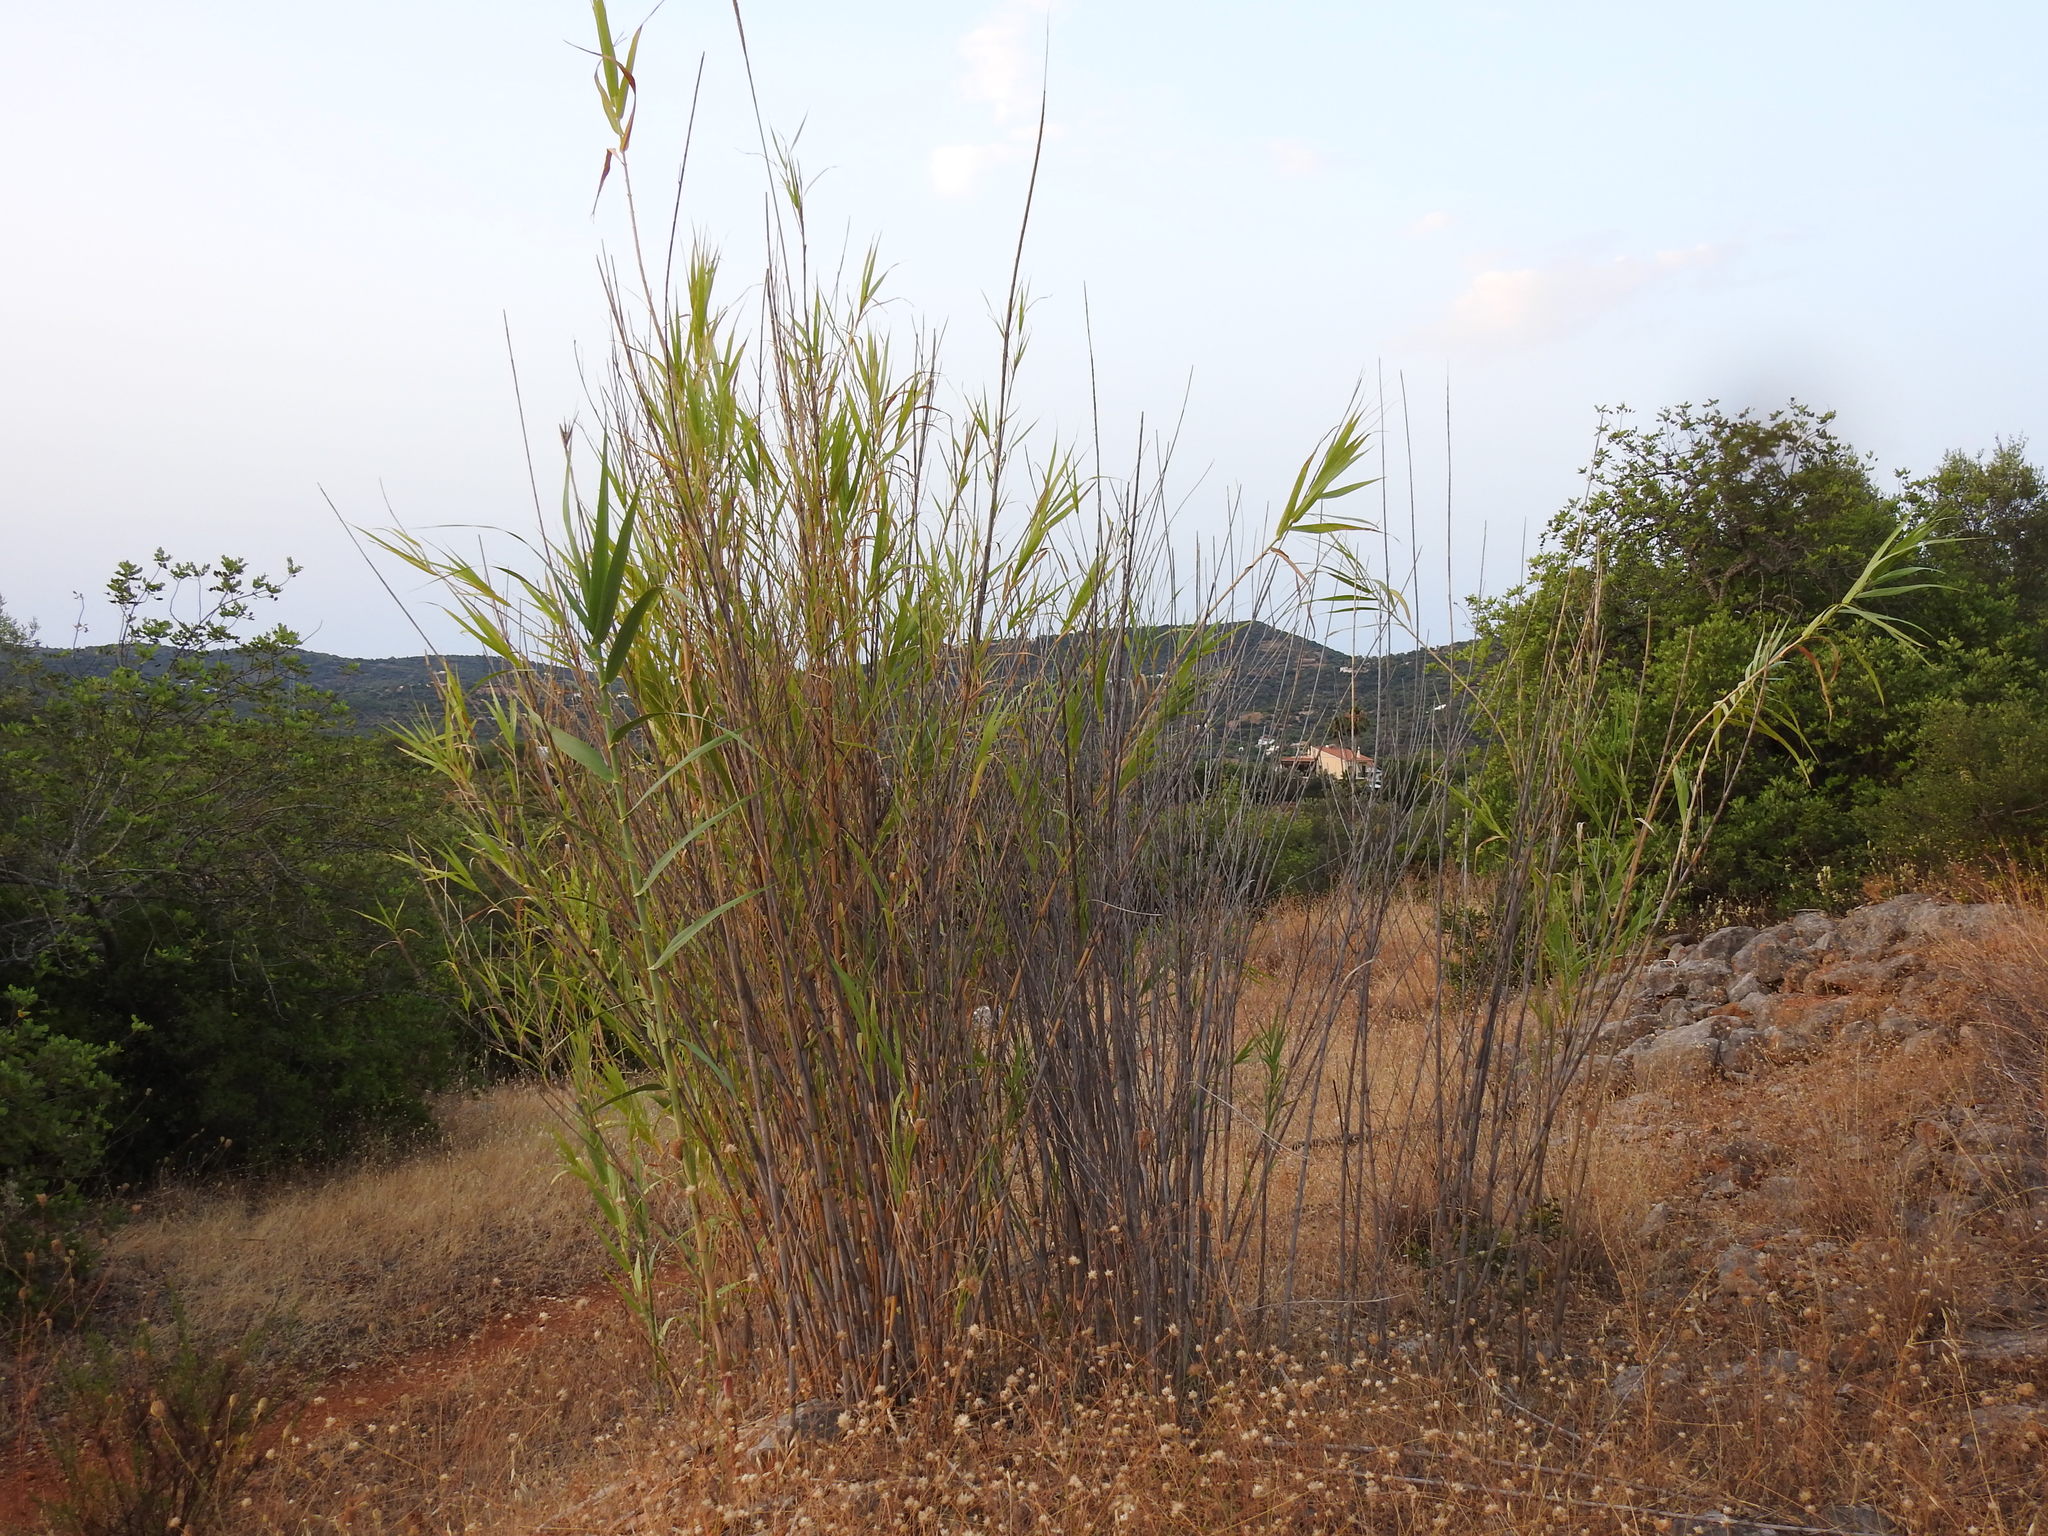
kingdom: Plantae
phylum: Tracheophyta
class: Liliopsida
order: Poales
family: Poaceae
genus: Arundo
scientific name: Arundo donax
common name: Giant reed
